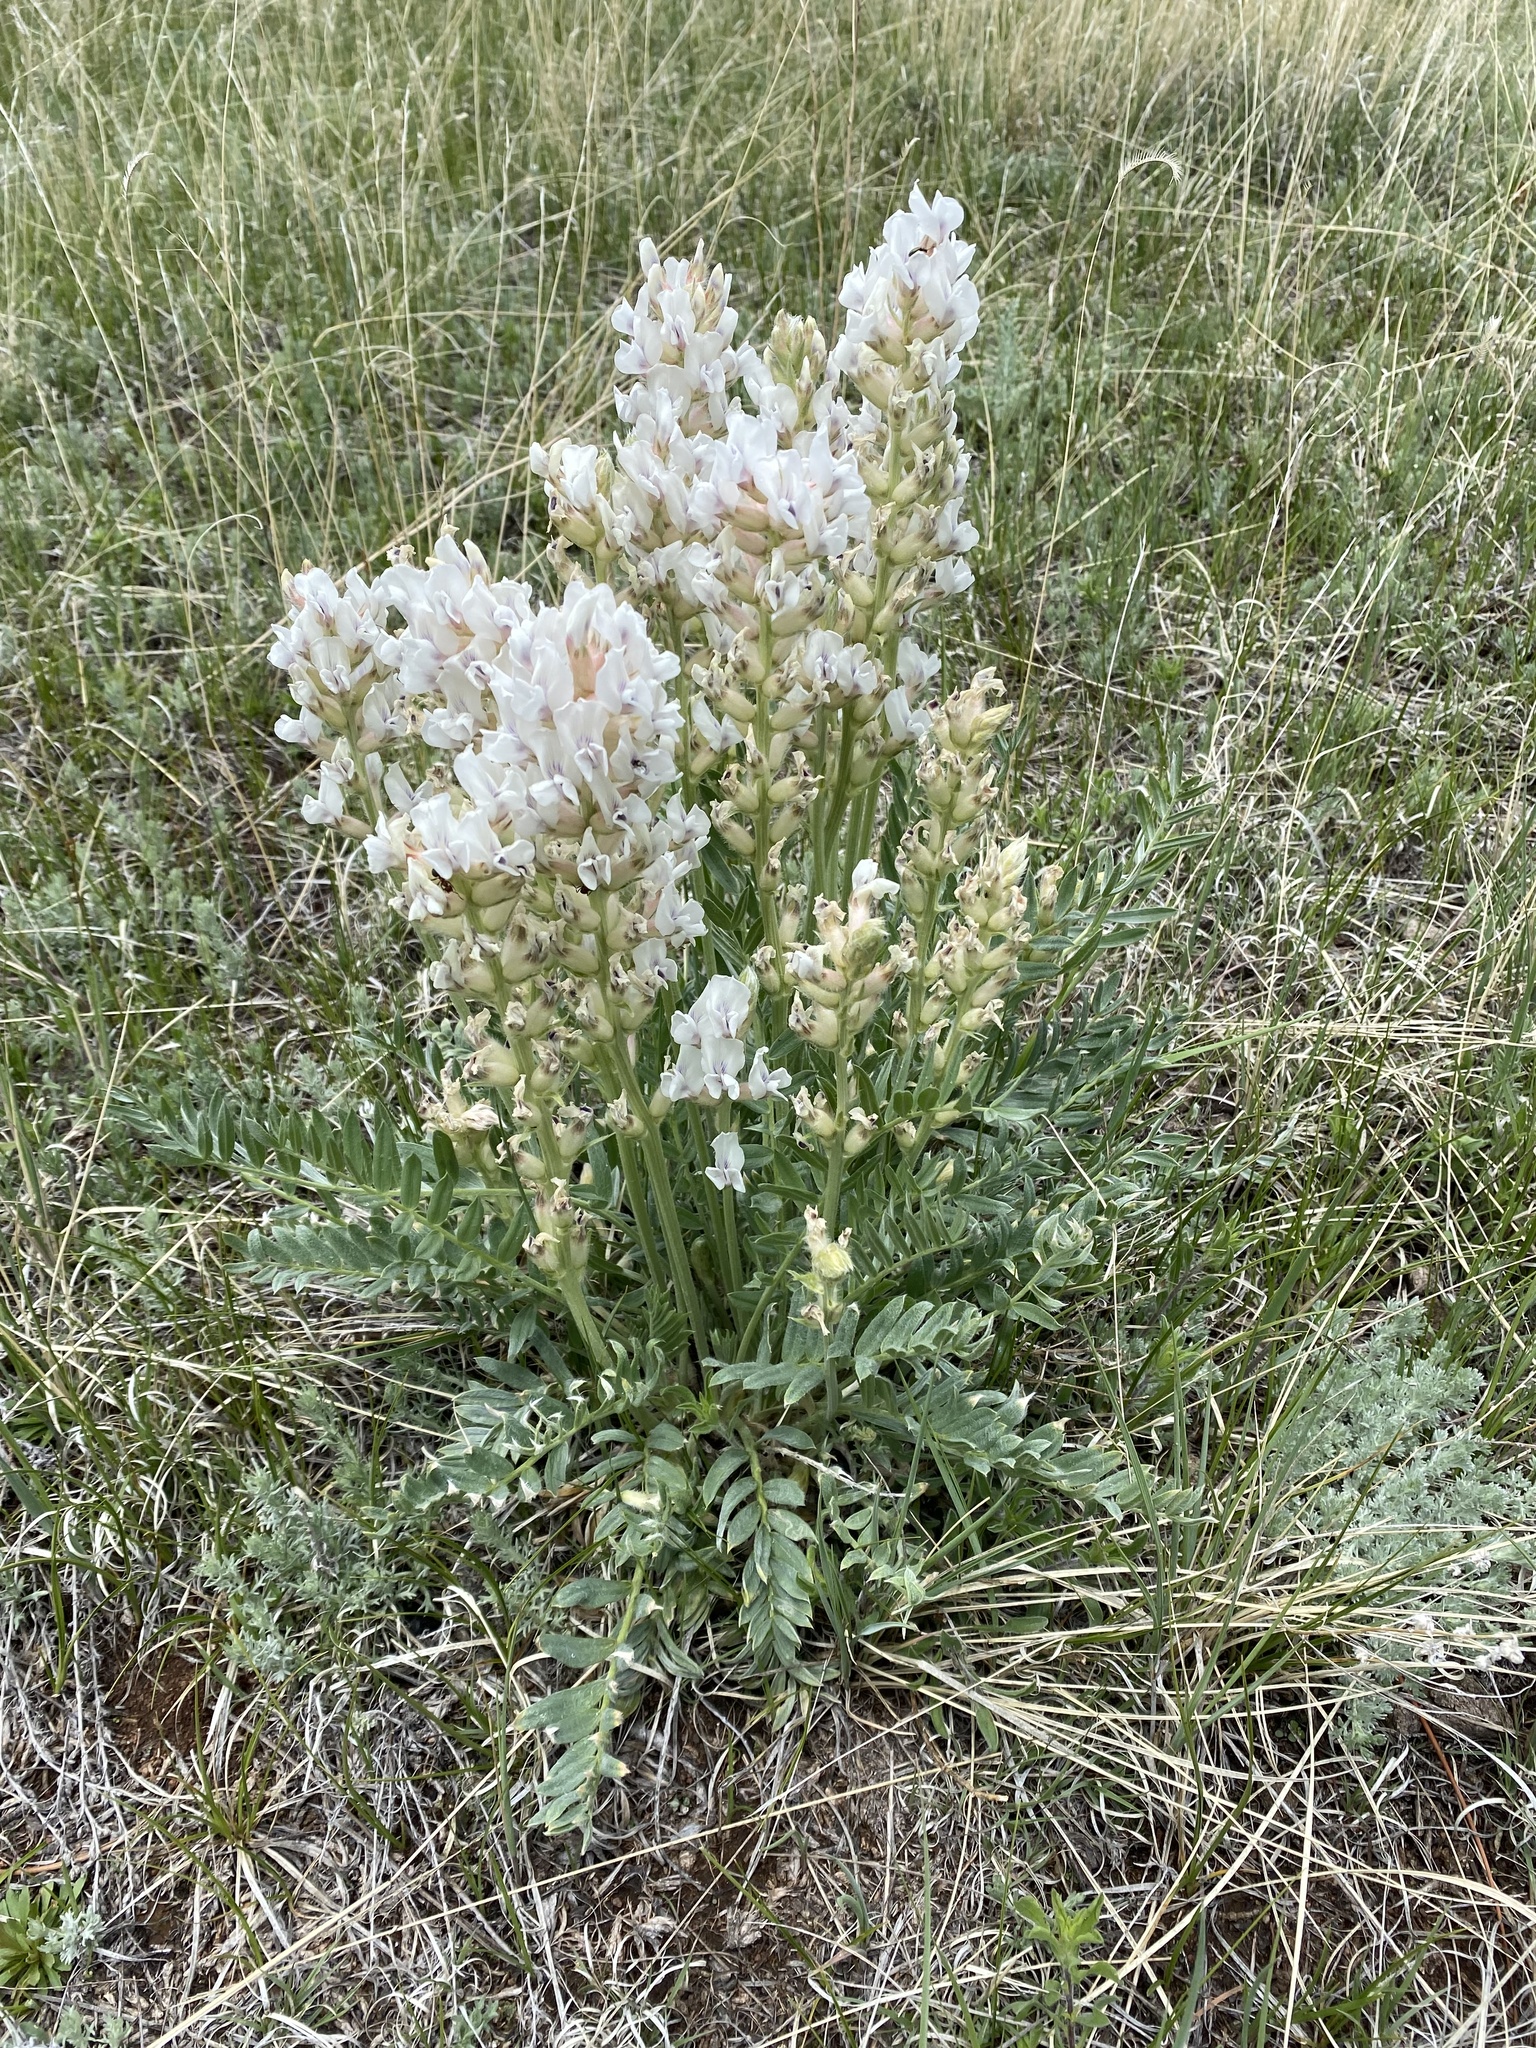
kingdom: Plantae
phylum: Tracheophyta
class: Magnoliopsida
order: Fabales
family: Fabaceae
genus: Oxytropis
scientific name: Oxytropis sericea
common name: Silky locoweed
